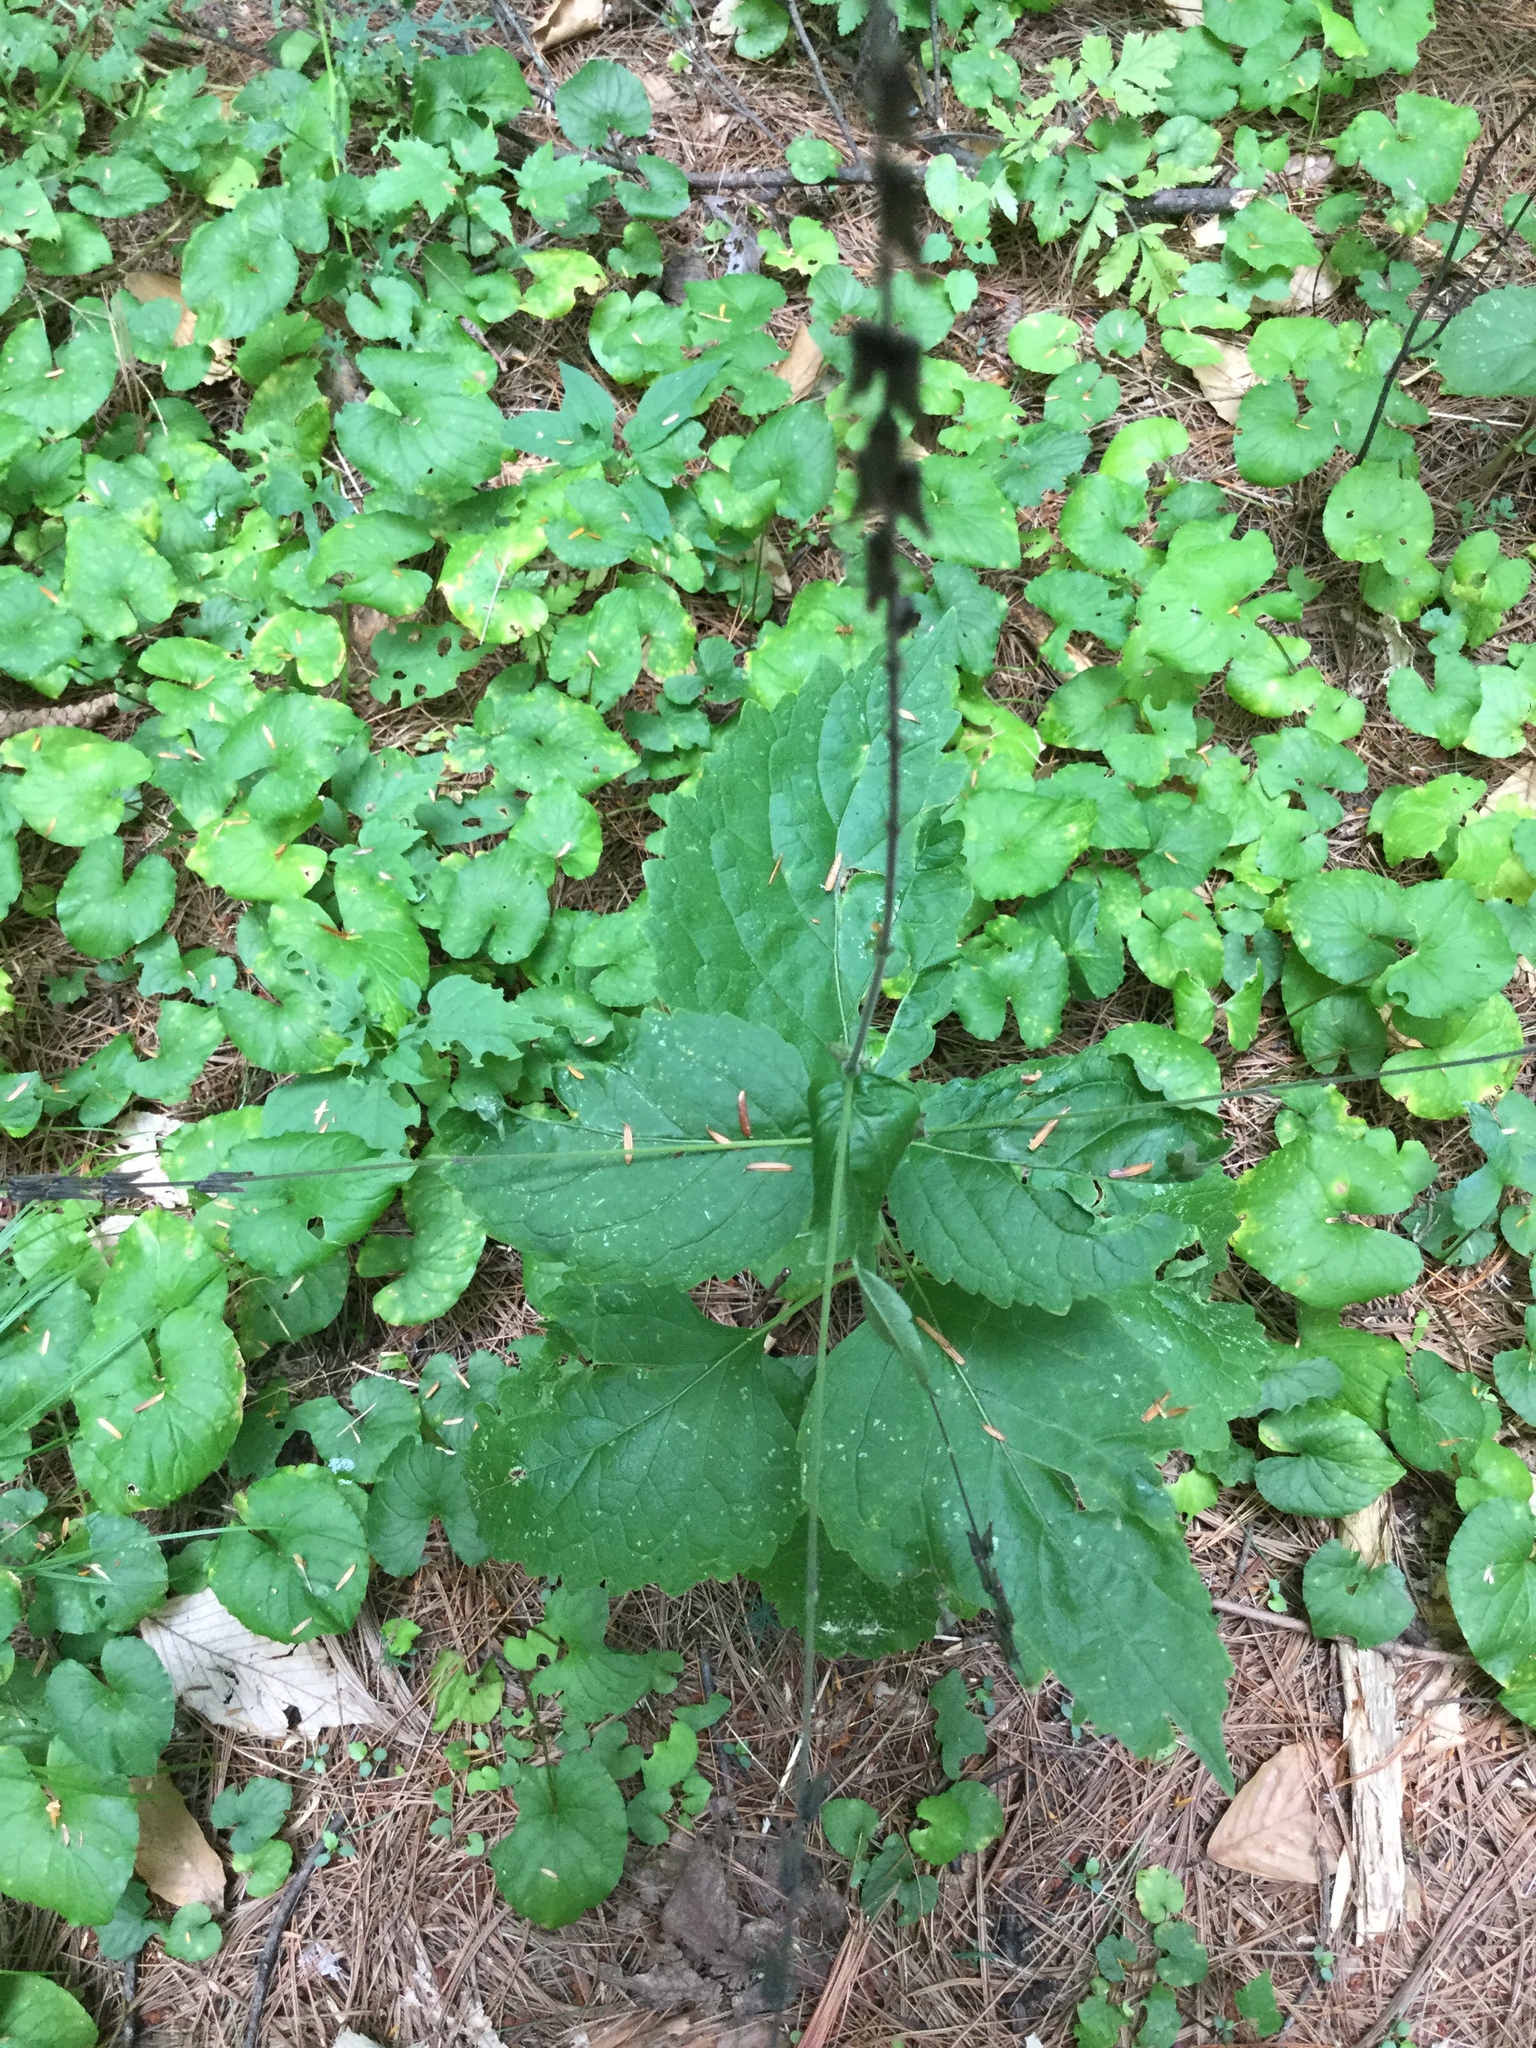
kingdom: Plantae
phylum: Tracheophyta
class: Magnoliopsida
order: Lamiales
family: Phrymaceae
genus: Phryma
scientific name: Phryma leptostachya
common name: American lopseed
